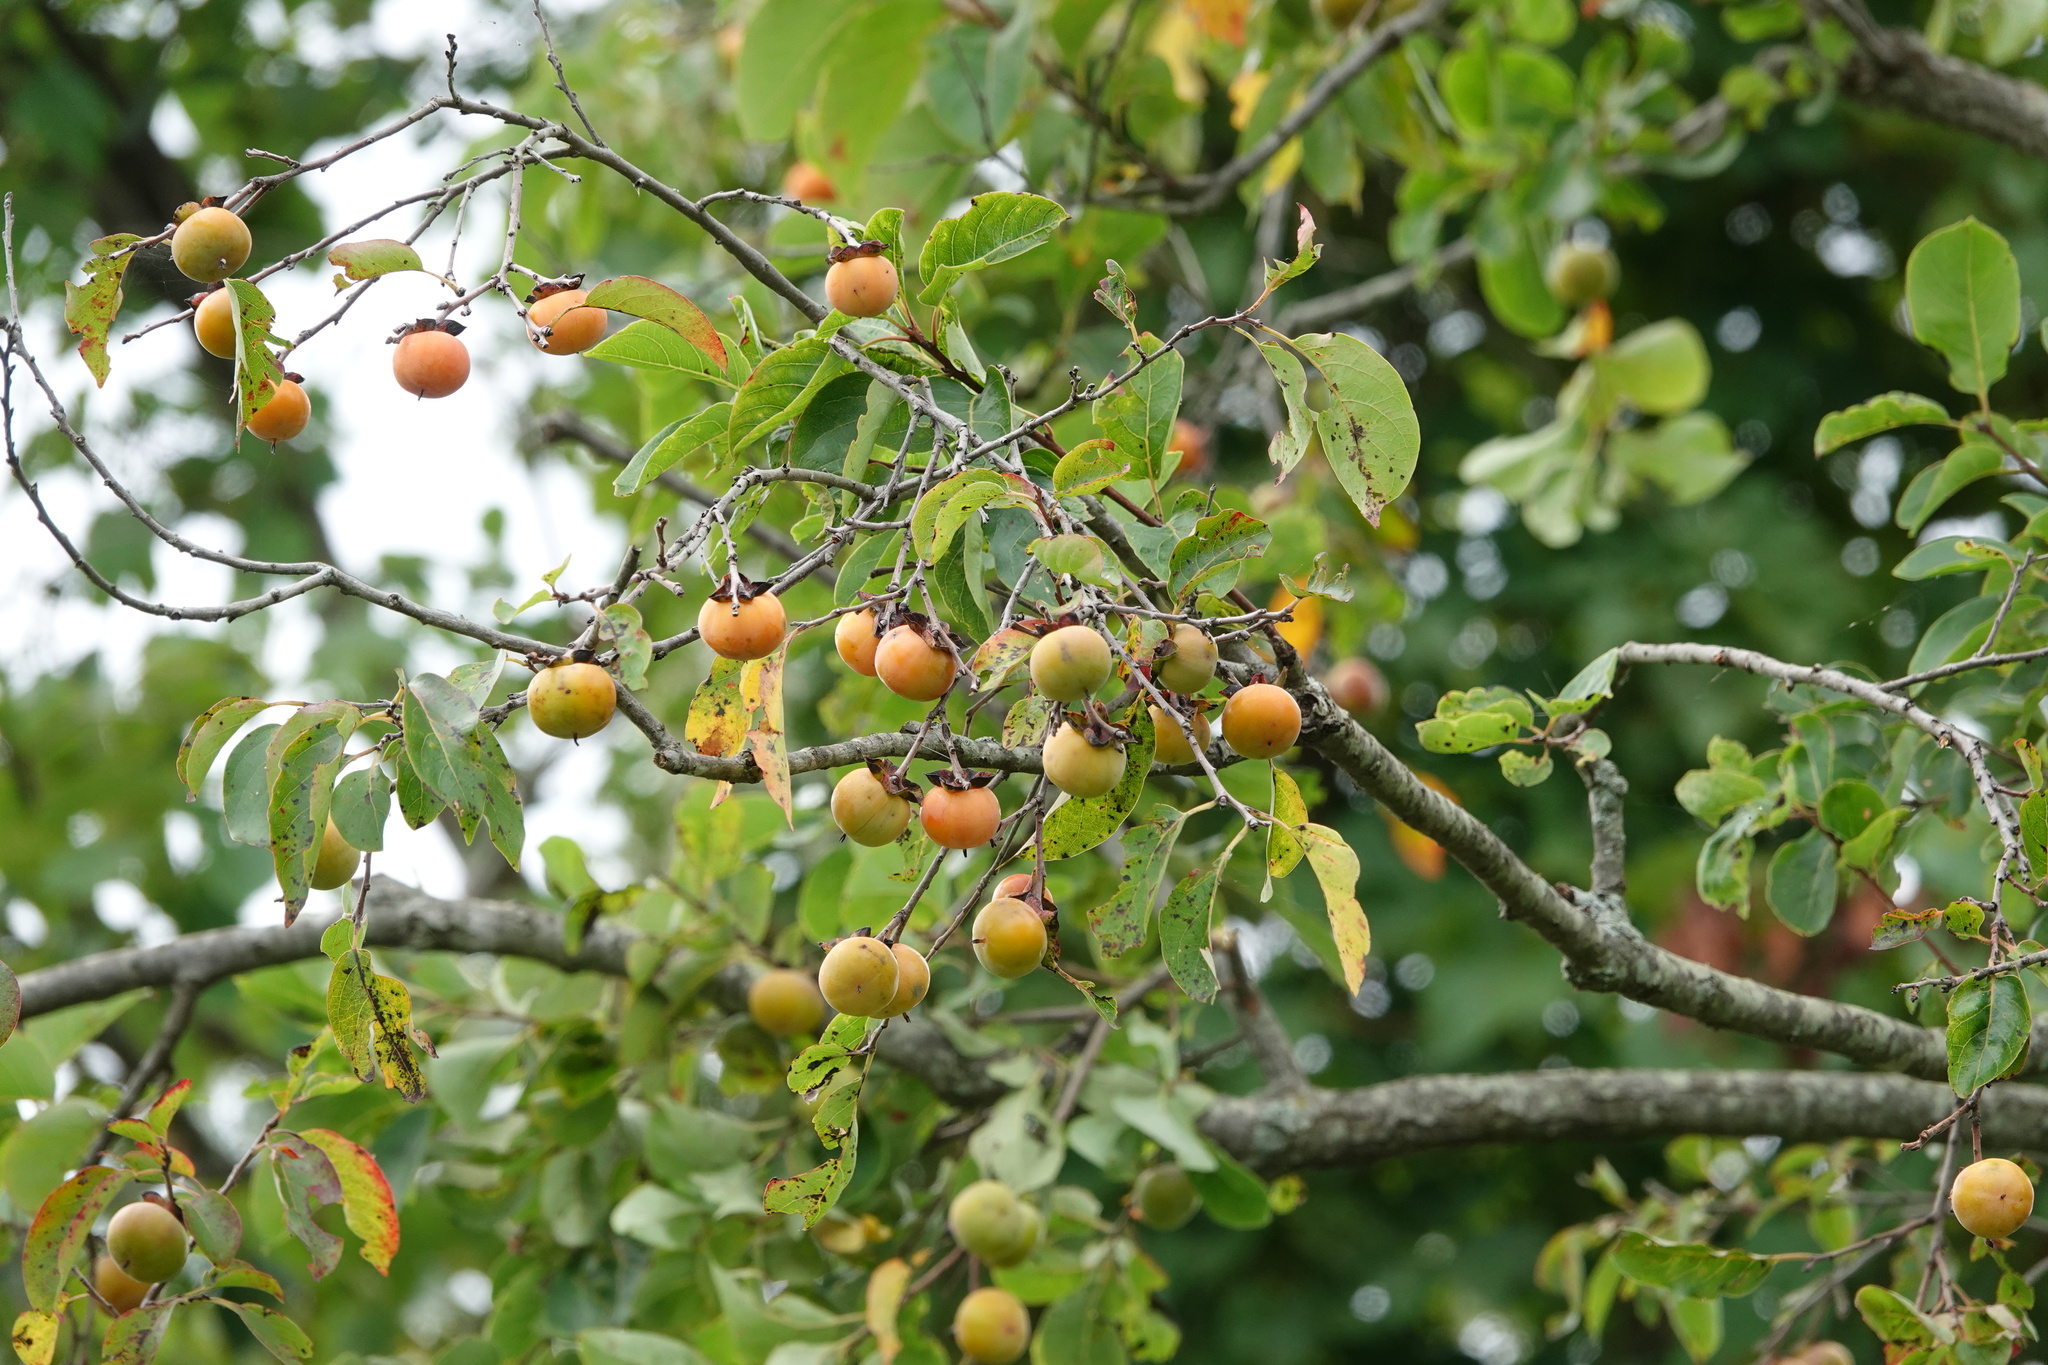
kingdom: Plantae
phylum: Tracheophyta
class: Magnoliopsida
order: Ericales
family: Ebenaceae
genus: Diospyros
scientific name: Diospyros virginiana
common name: Persimmon
